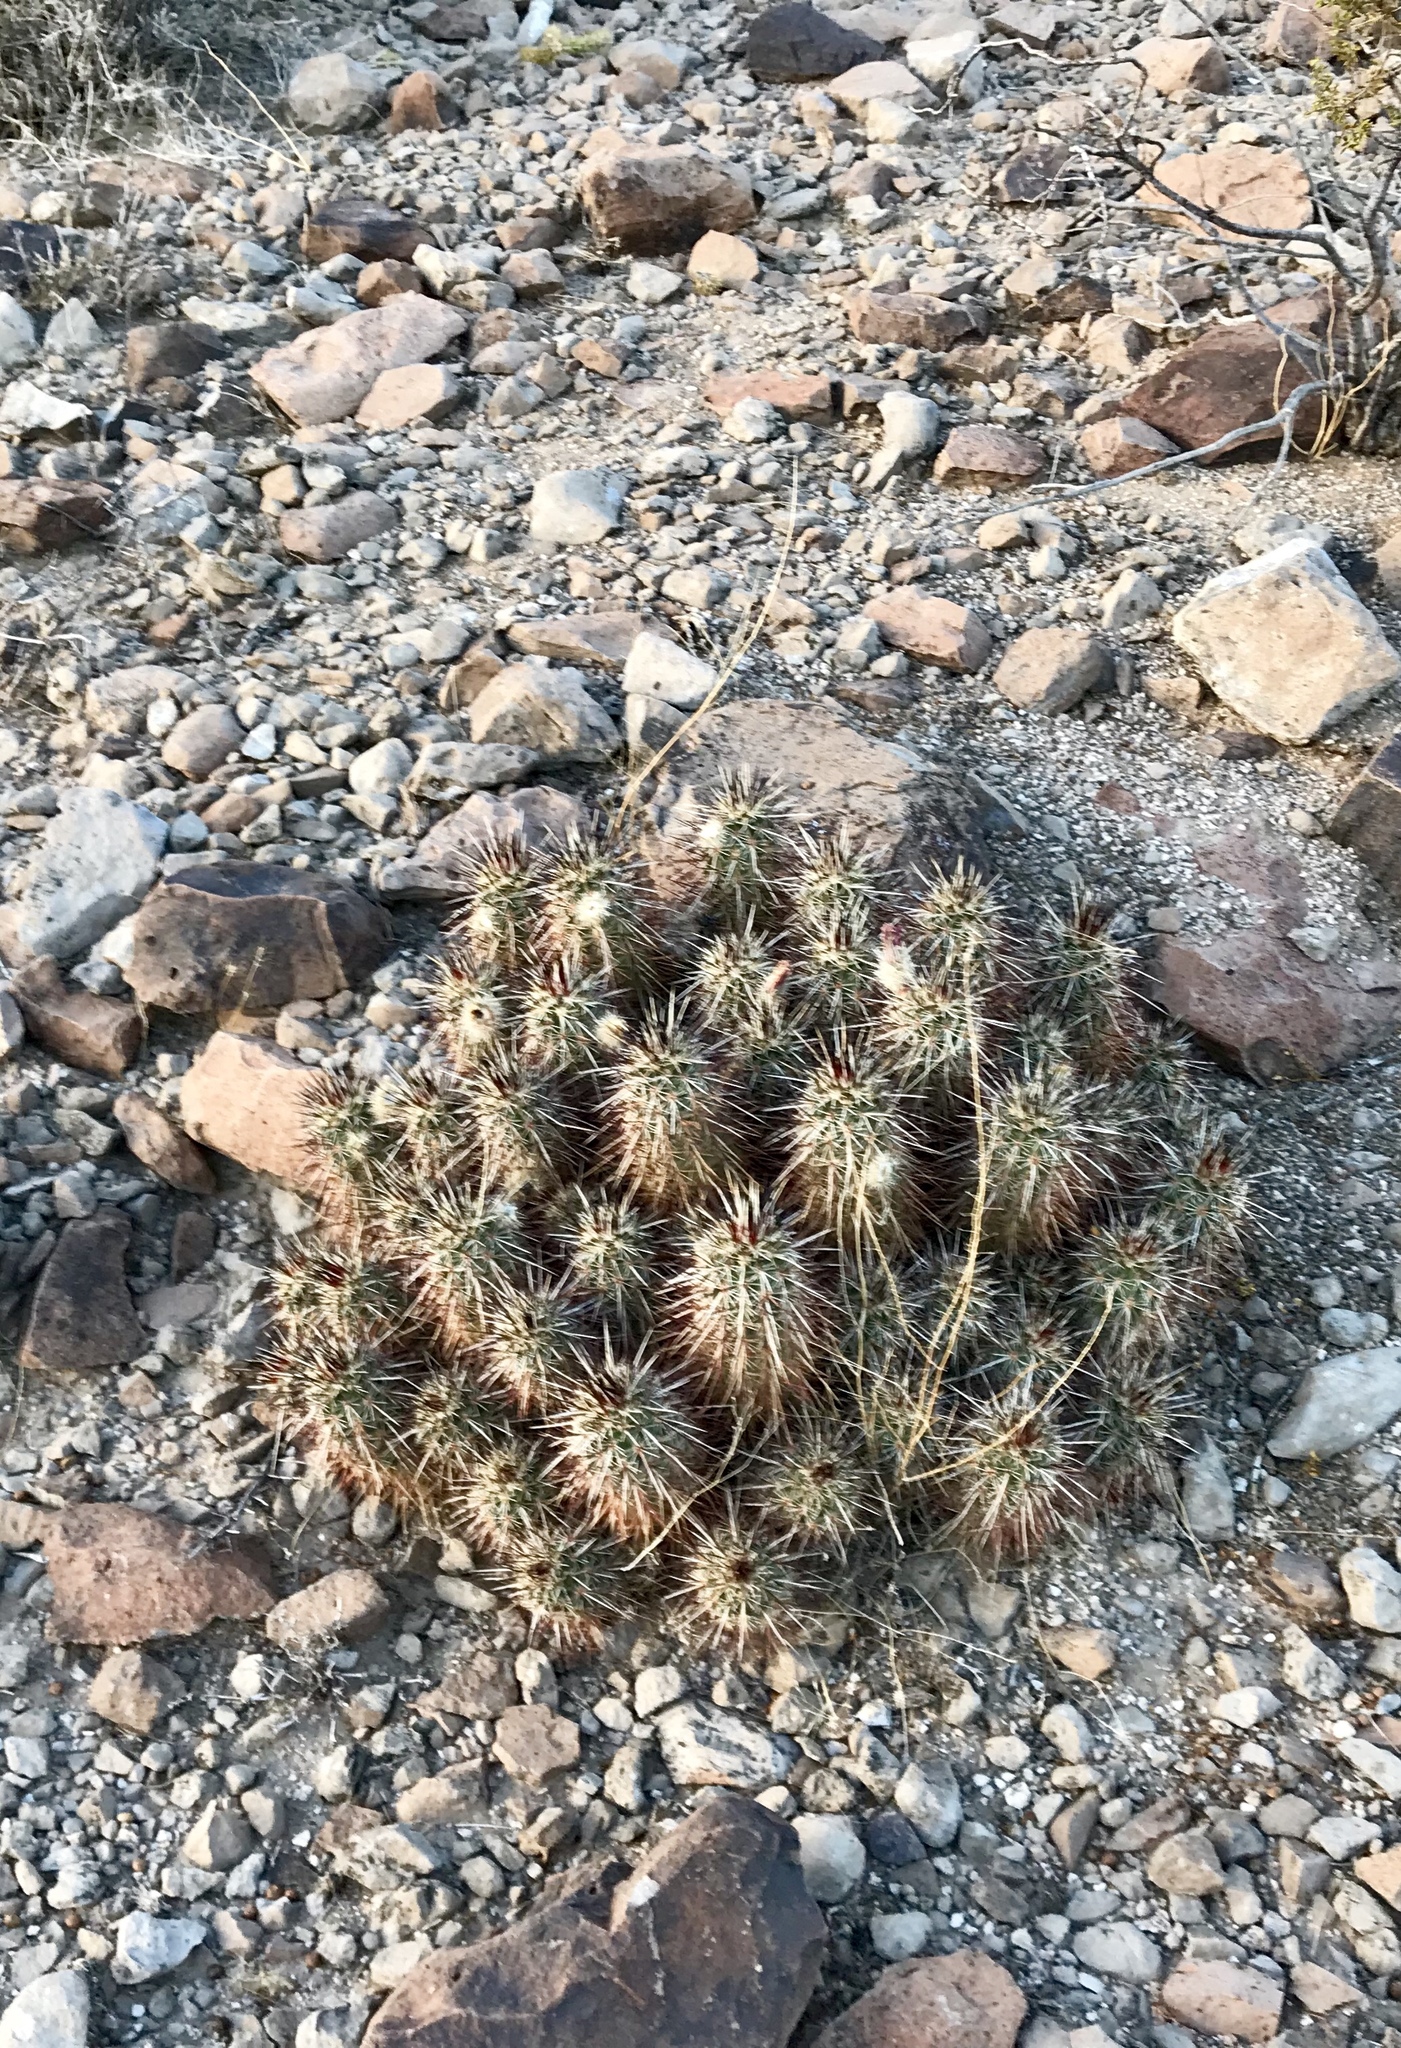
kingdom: Plantae
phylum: Tracheophyta
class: Magnoliopsida
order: Caryophyllales
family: Cactaceae
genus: Echinocereus
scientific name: Echinocereus engelmannii
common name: Engelmann's hedgehog cactus
